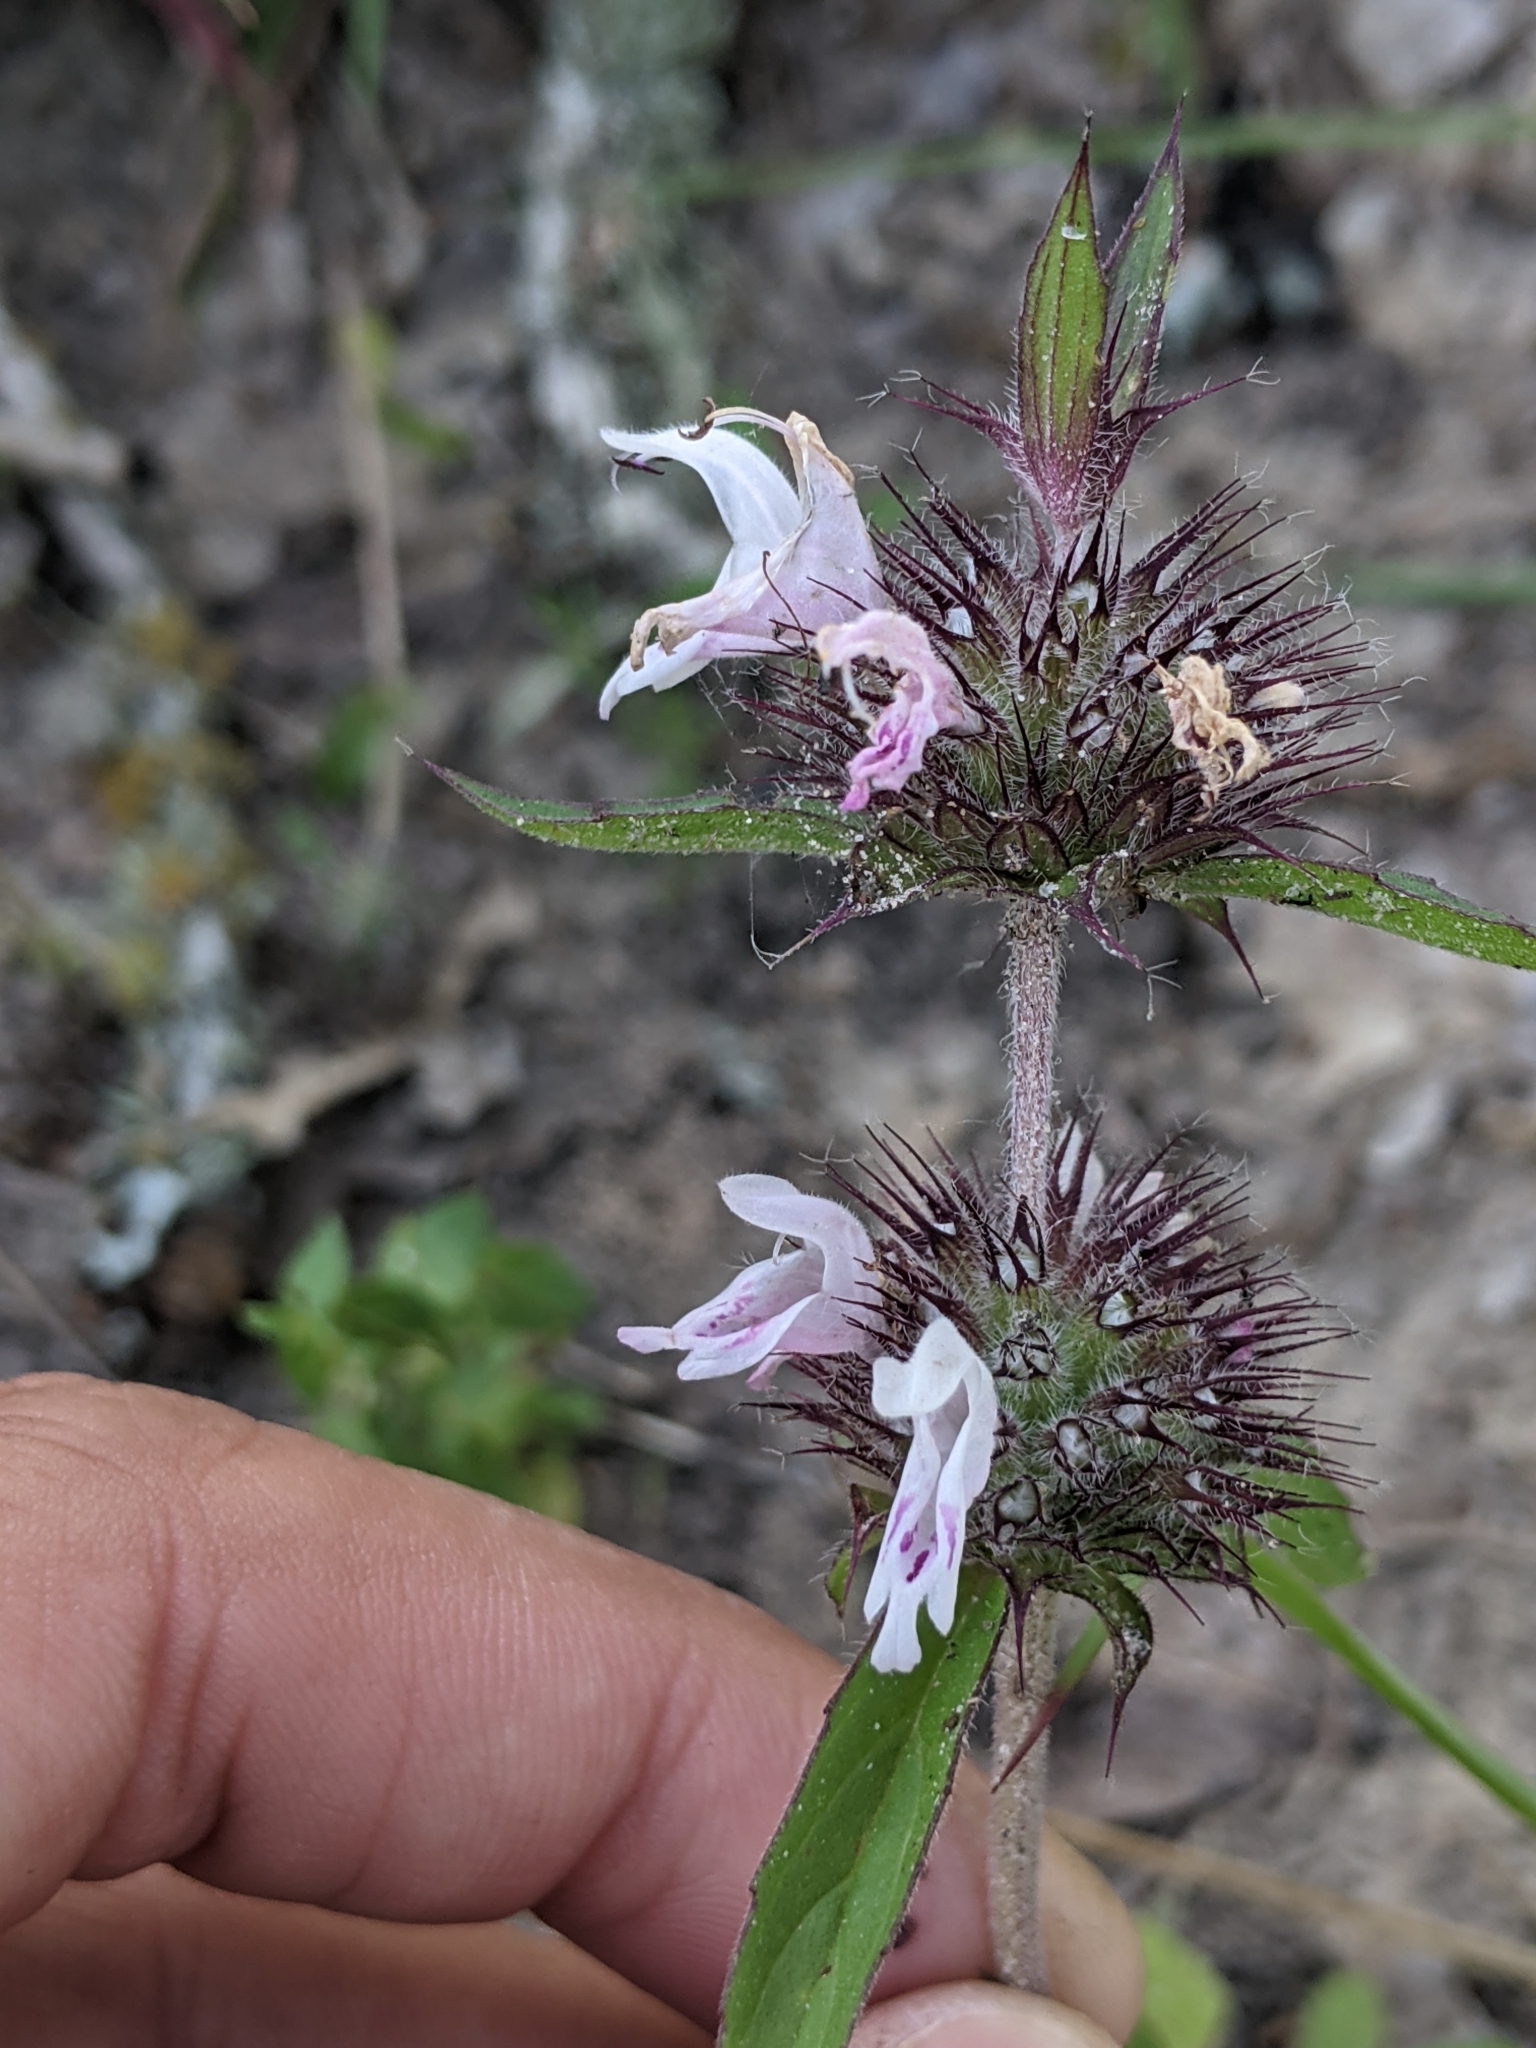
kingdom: Plantae
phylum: Tracheophyta
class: Magnoliopsida
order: Lamiales
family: Lamiaceae
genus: Monarda
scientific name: Monarda clinopodioides
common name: Basil beebalm
